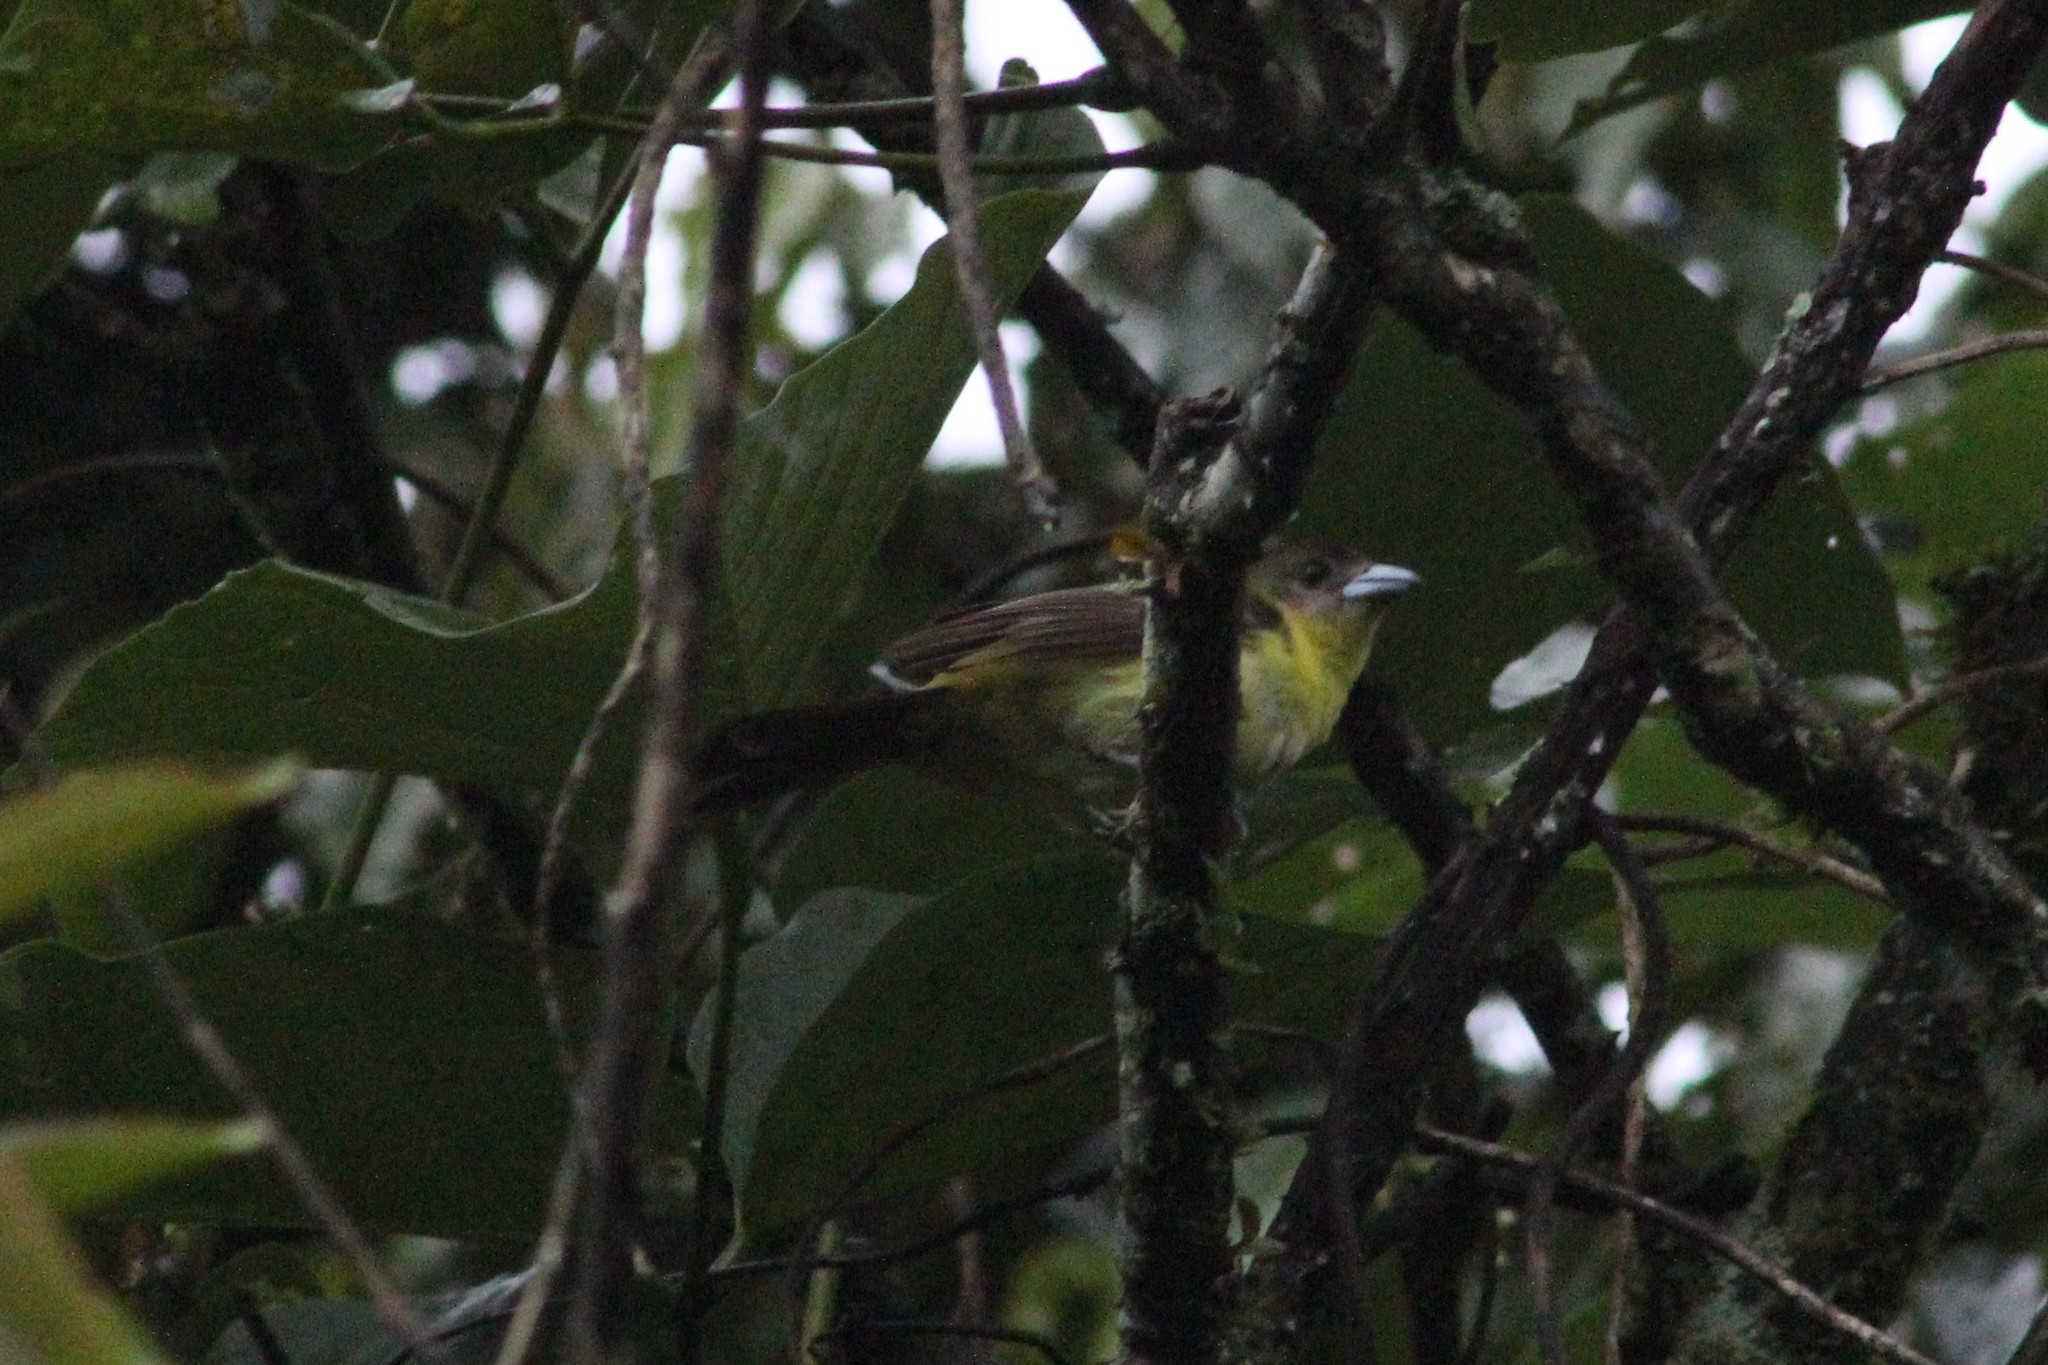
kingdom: Animalia
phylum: Chordata
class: Aves
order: Passeriformes
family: Thraupidae
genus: Ramphocelus
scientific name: Ramphocelus icteronotus
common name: Lemon-rumped tanager
